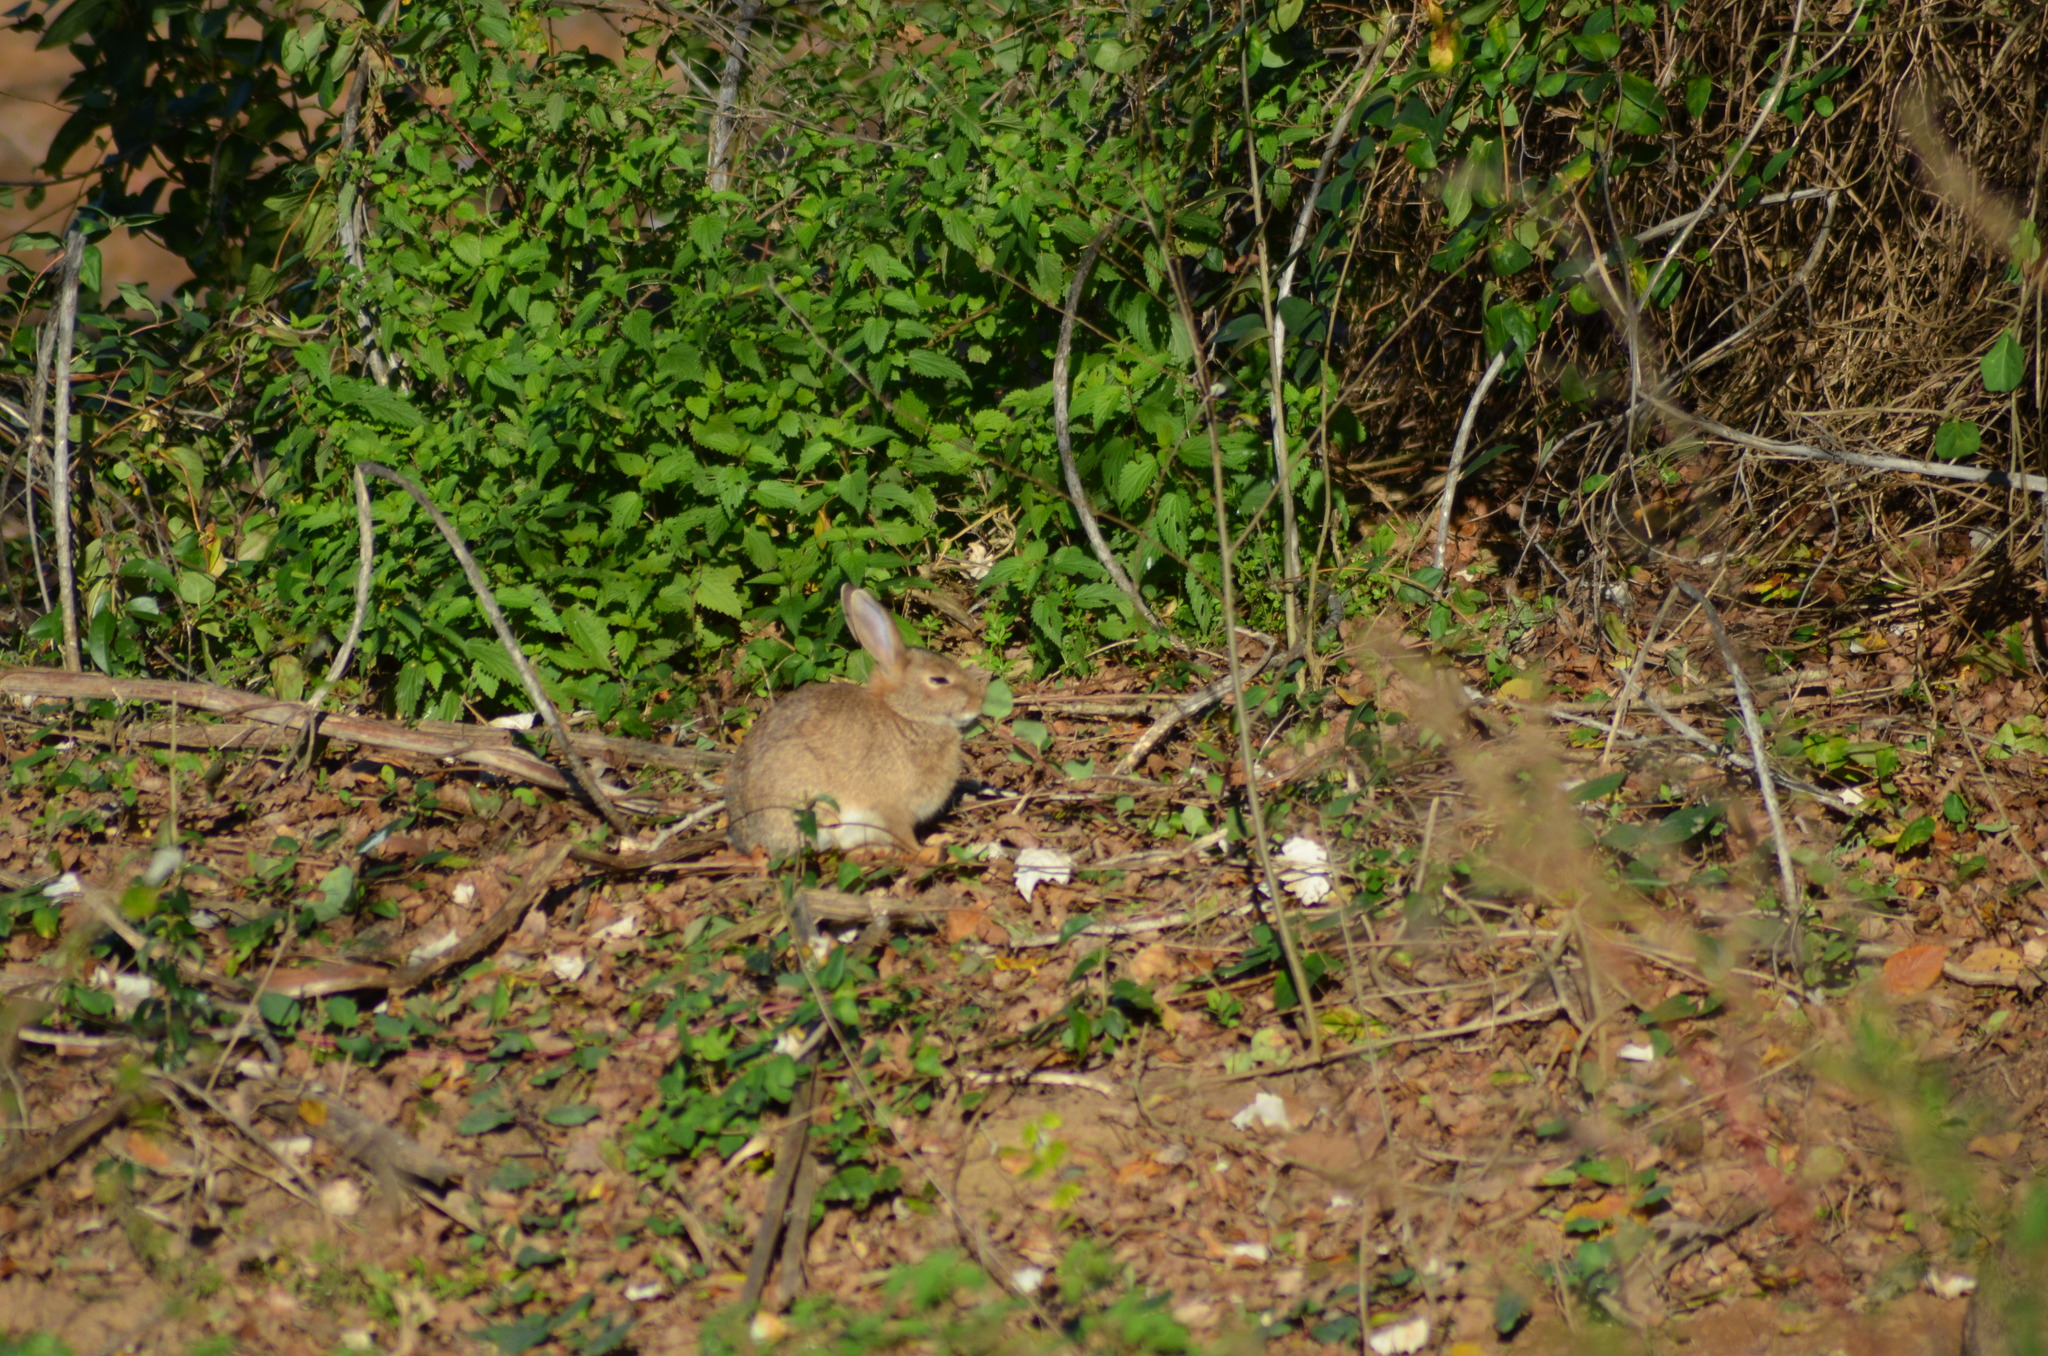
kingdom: Animalia
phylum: Chordata
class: Mammalia
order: Lagomorpha
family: Leporidae
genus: Oryctolagus
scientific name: Oryctolagus cuniculus
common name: European rabbit
